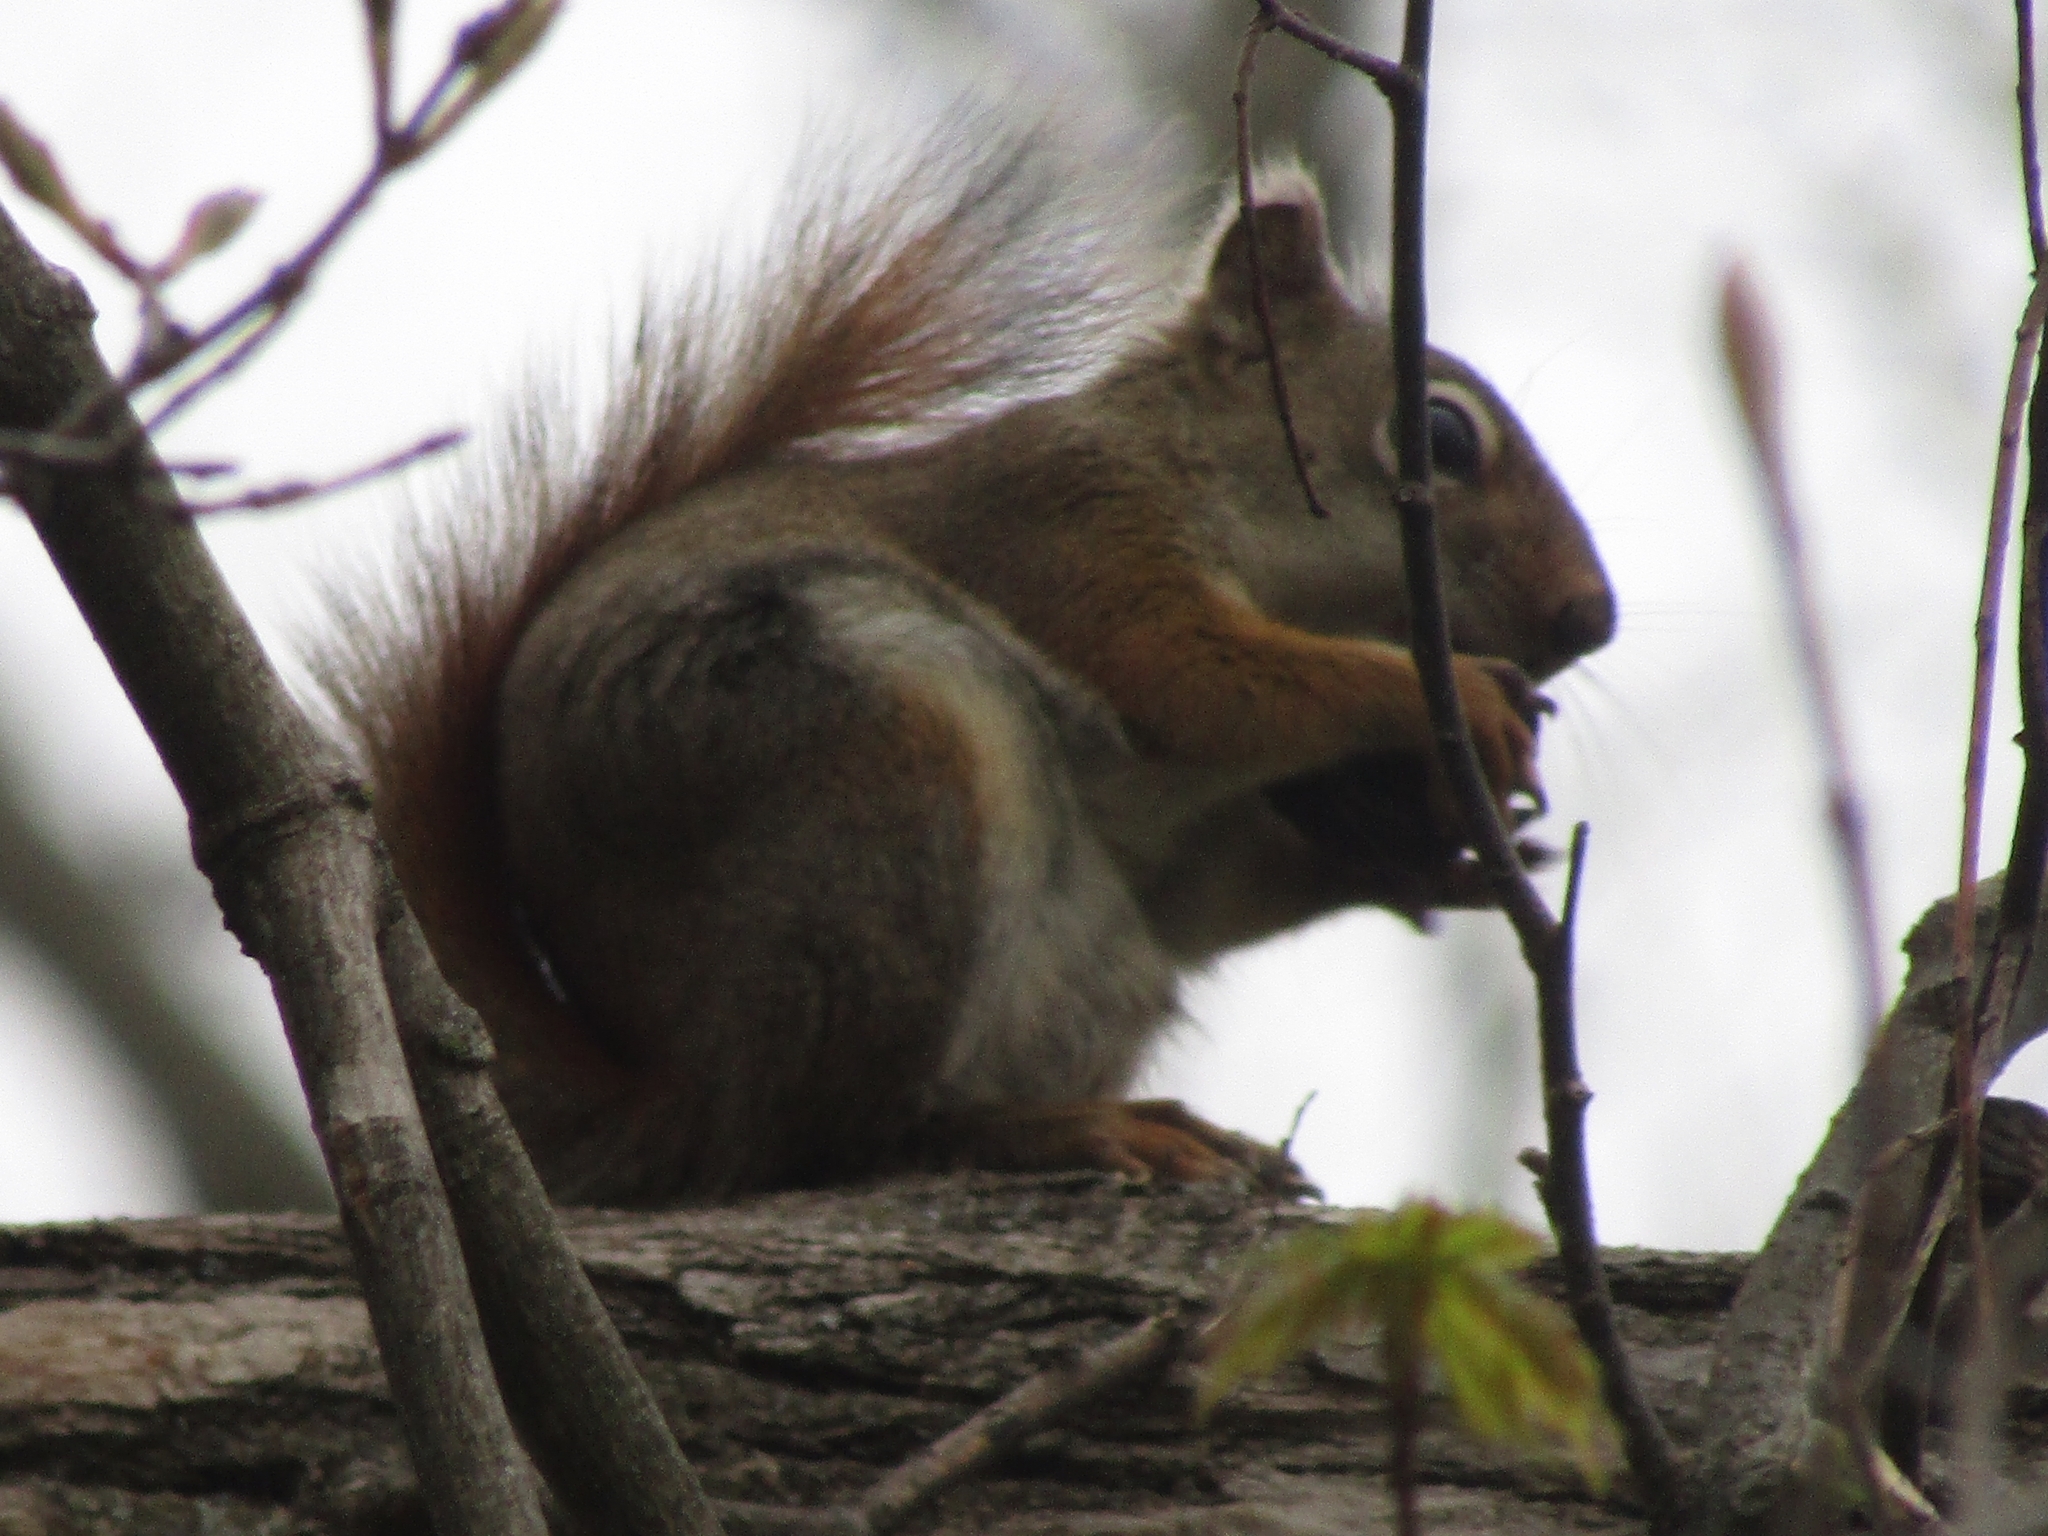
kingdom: Animalia
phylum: Chordata
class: Mammalia
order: Rodentia
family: Sciuridae
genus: Tamiasciurus
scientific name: Tamiasciurus hudsonicus
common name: Red squirrel
